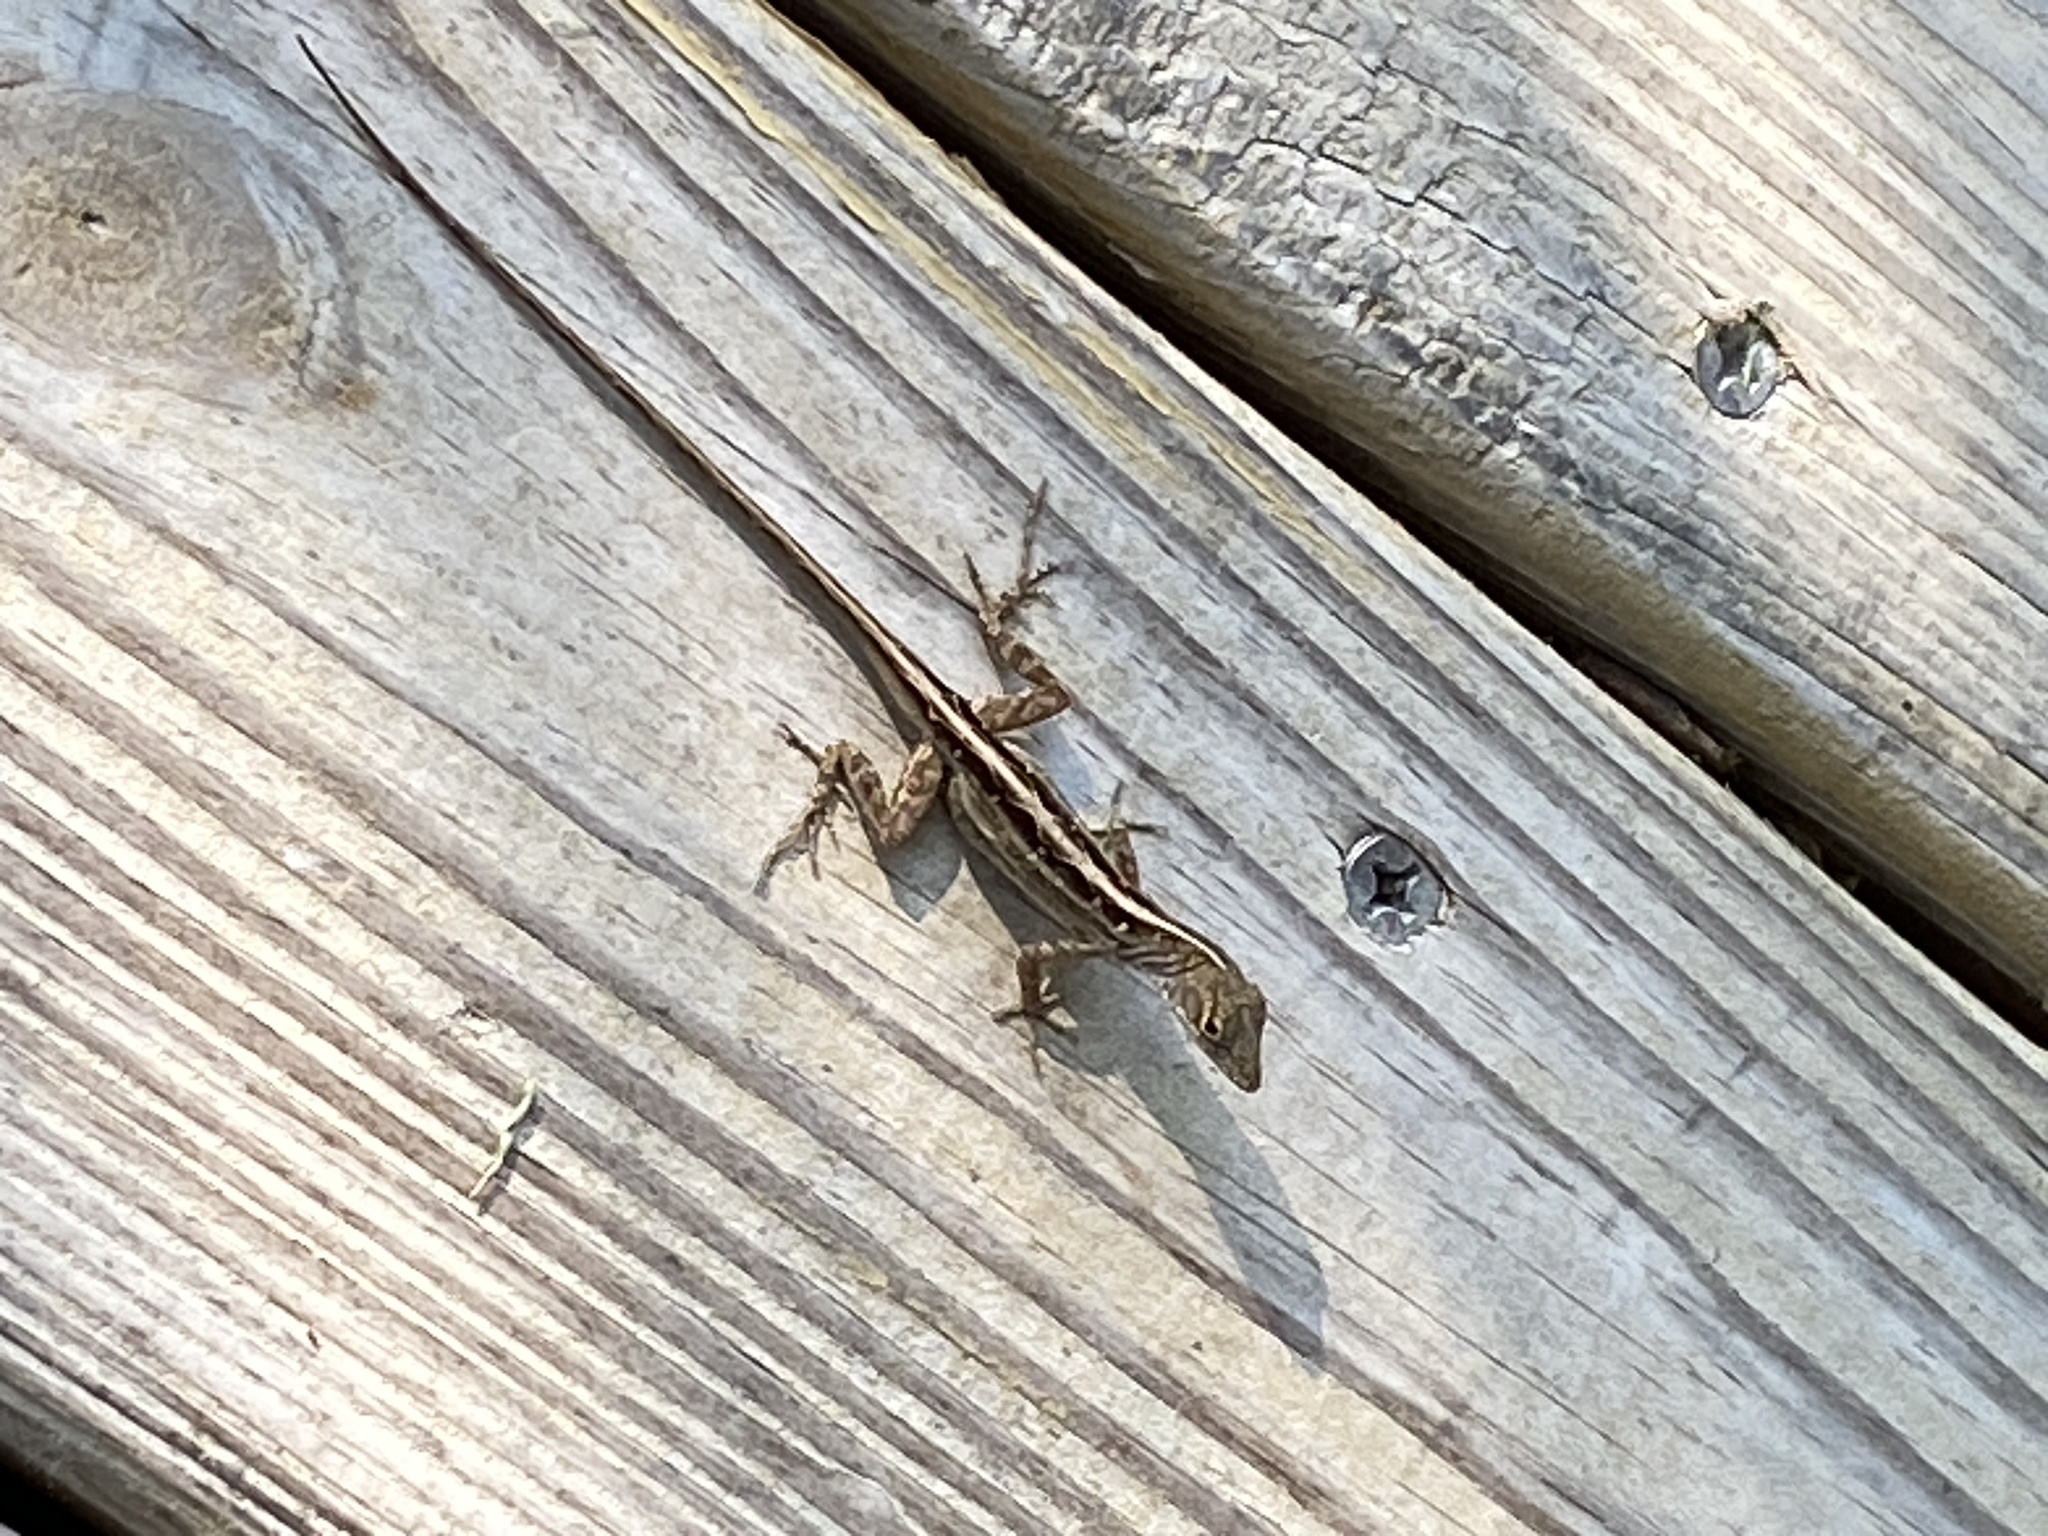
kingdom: Animalia
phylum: Chordata
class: Squamata
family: Dactyloidae
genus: Anolis
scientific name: Anolis sagrei
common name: Brown anole
